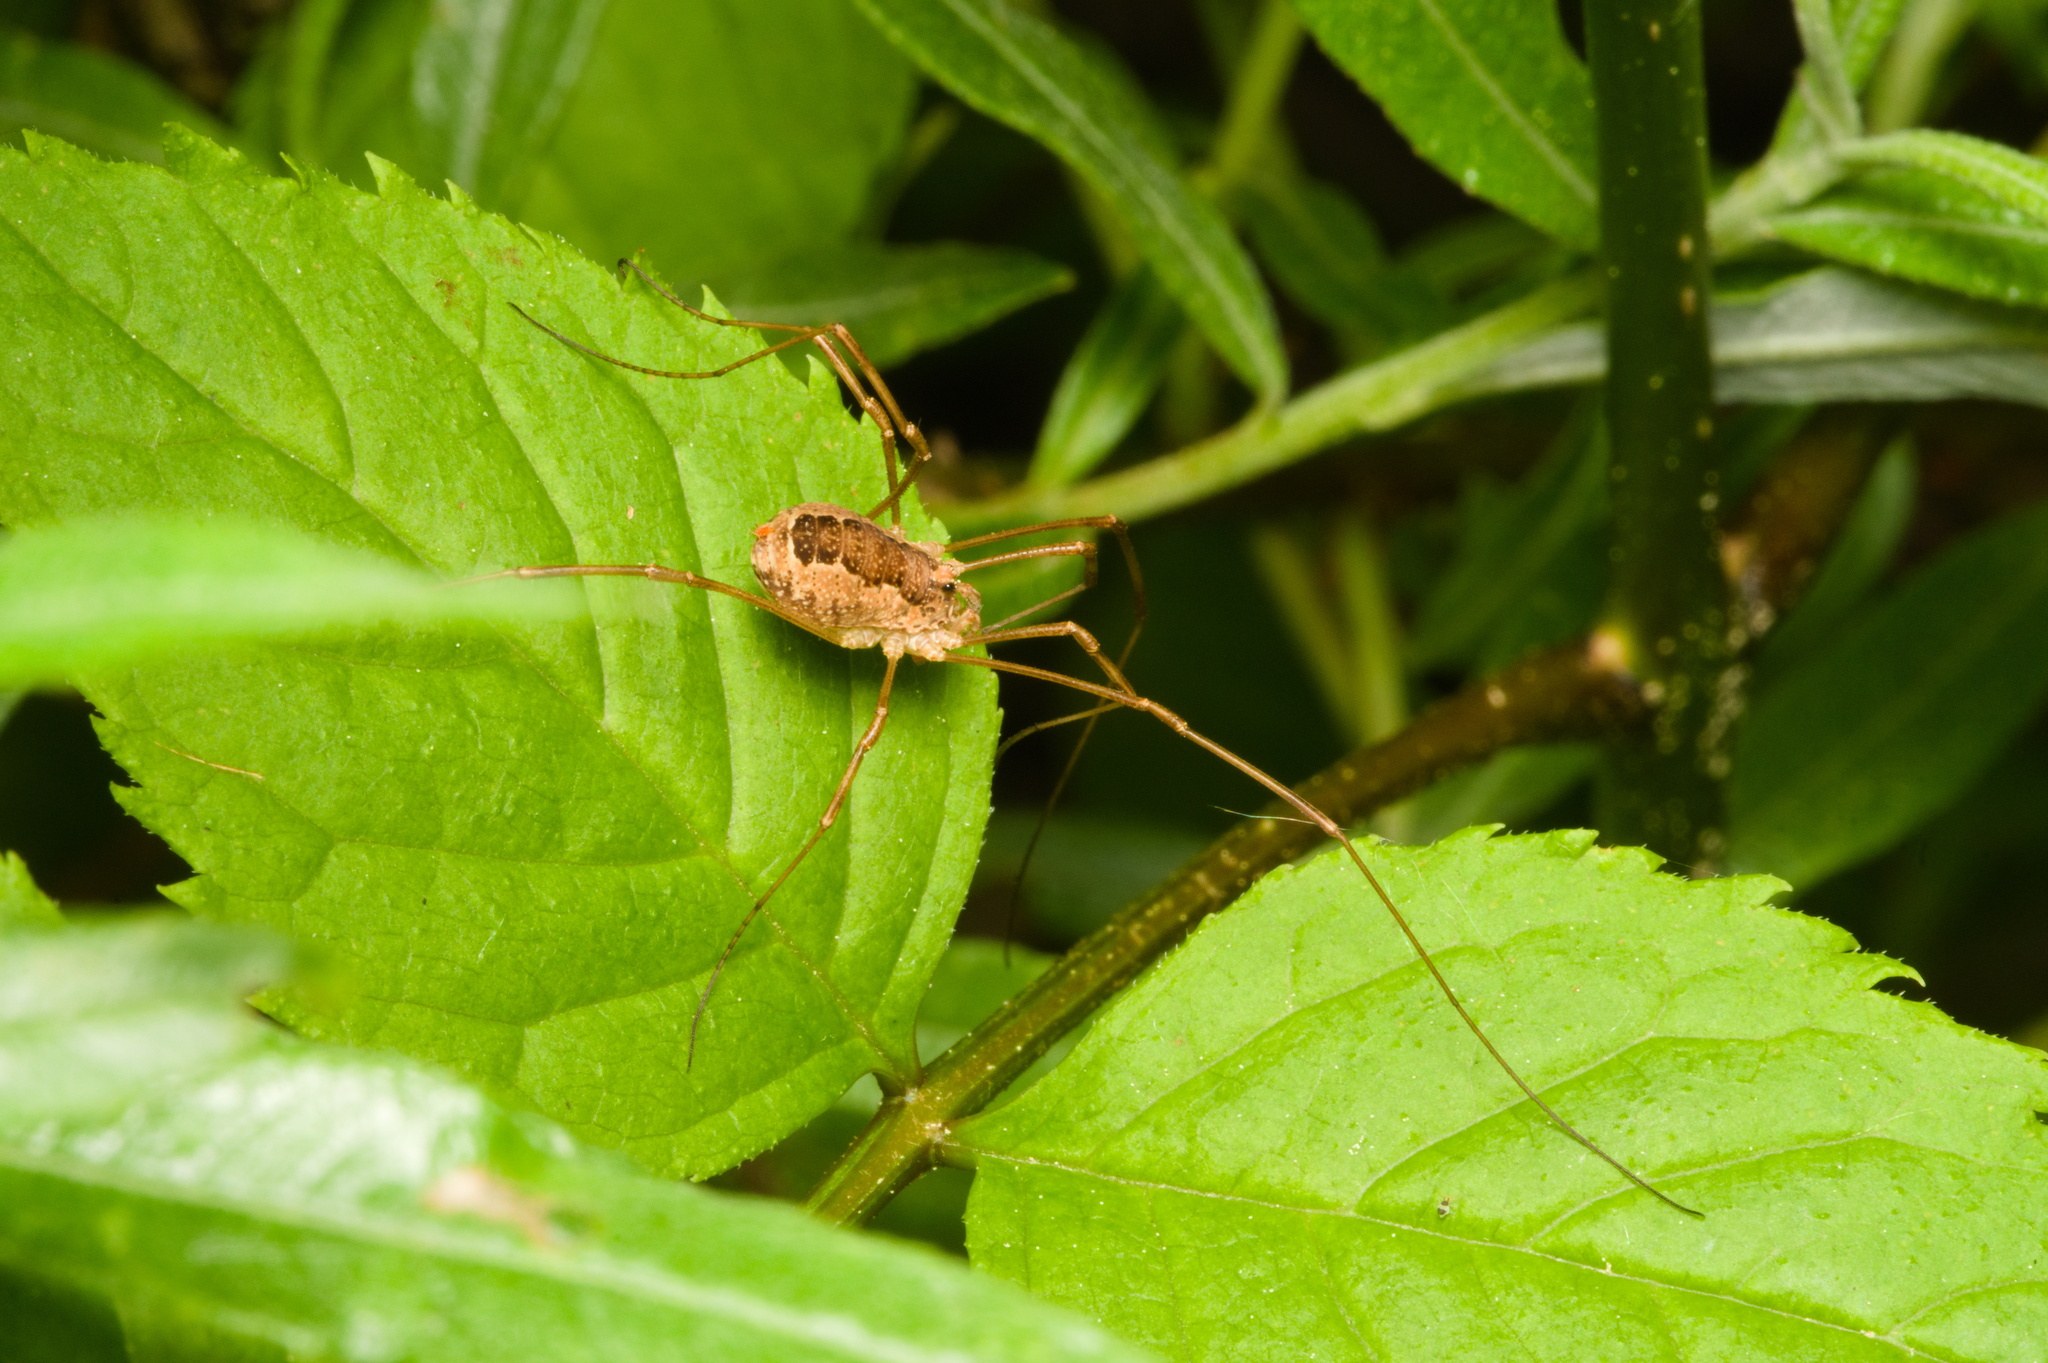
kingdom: Animalia
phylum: Arthropoda
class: Arachnida
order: Opiliones
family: Phalangiidae
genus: Rilaena
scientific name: Rilaena triangularis
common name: Spring harvestman
